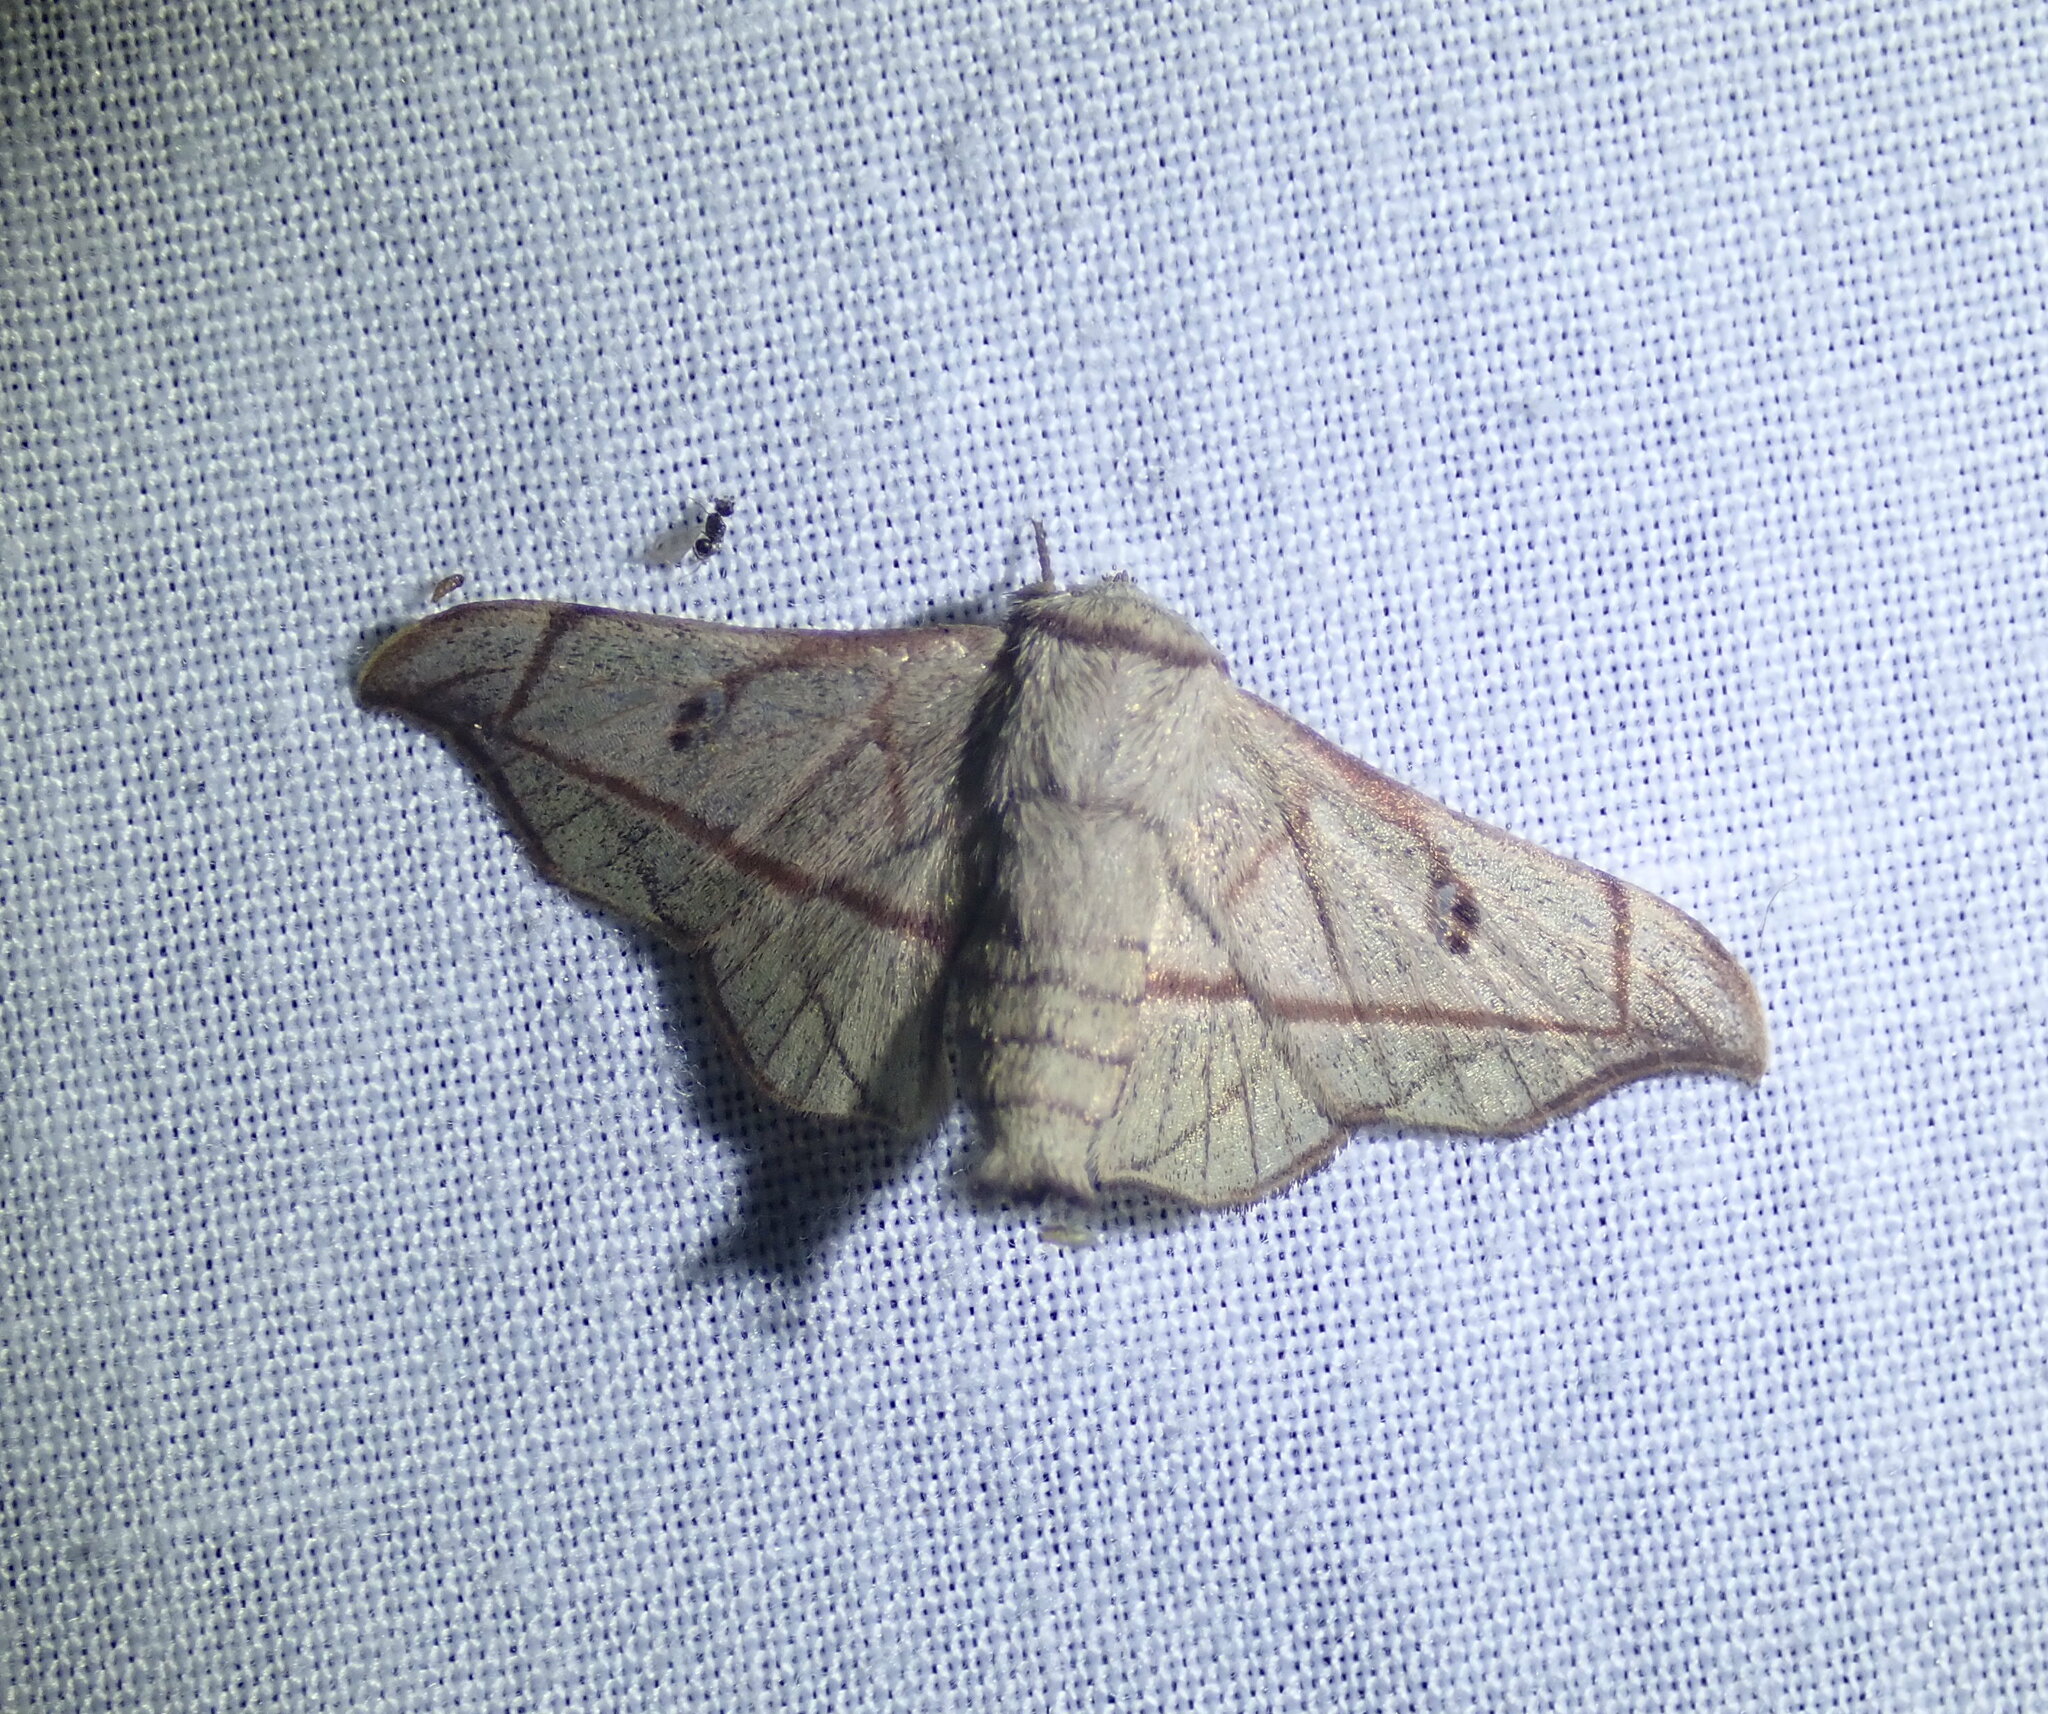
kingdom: Animalia
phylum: Arthropoda
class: Insecta
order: Lepidoptera
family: Mimallonidae
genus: Bedosiallo
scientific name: Bedosiallo
